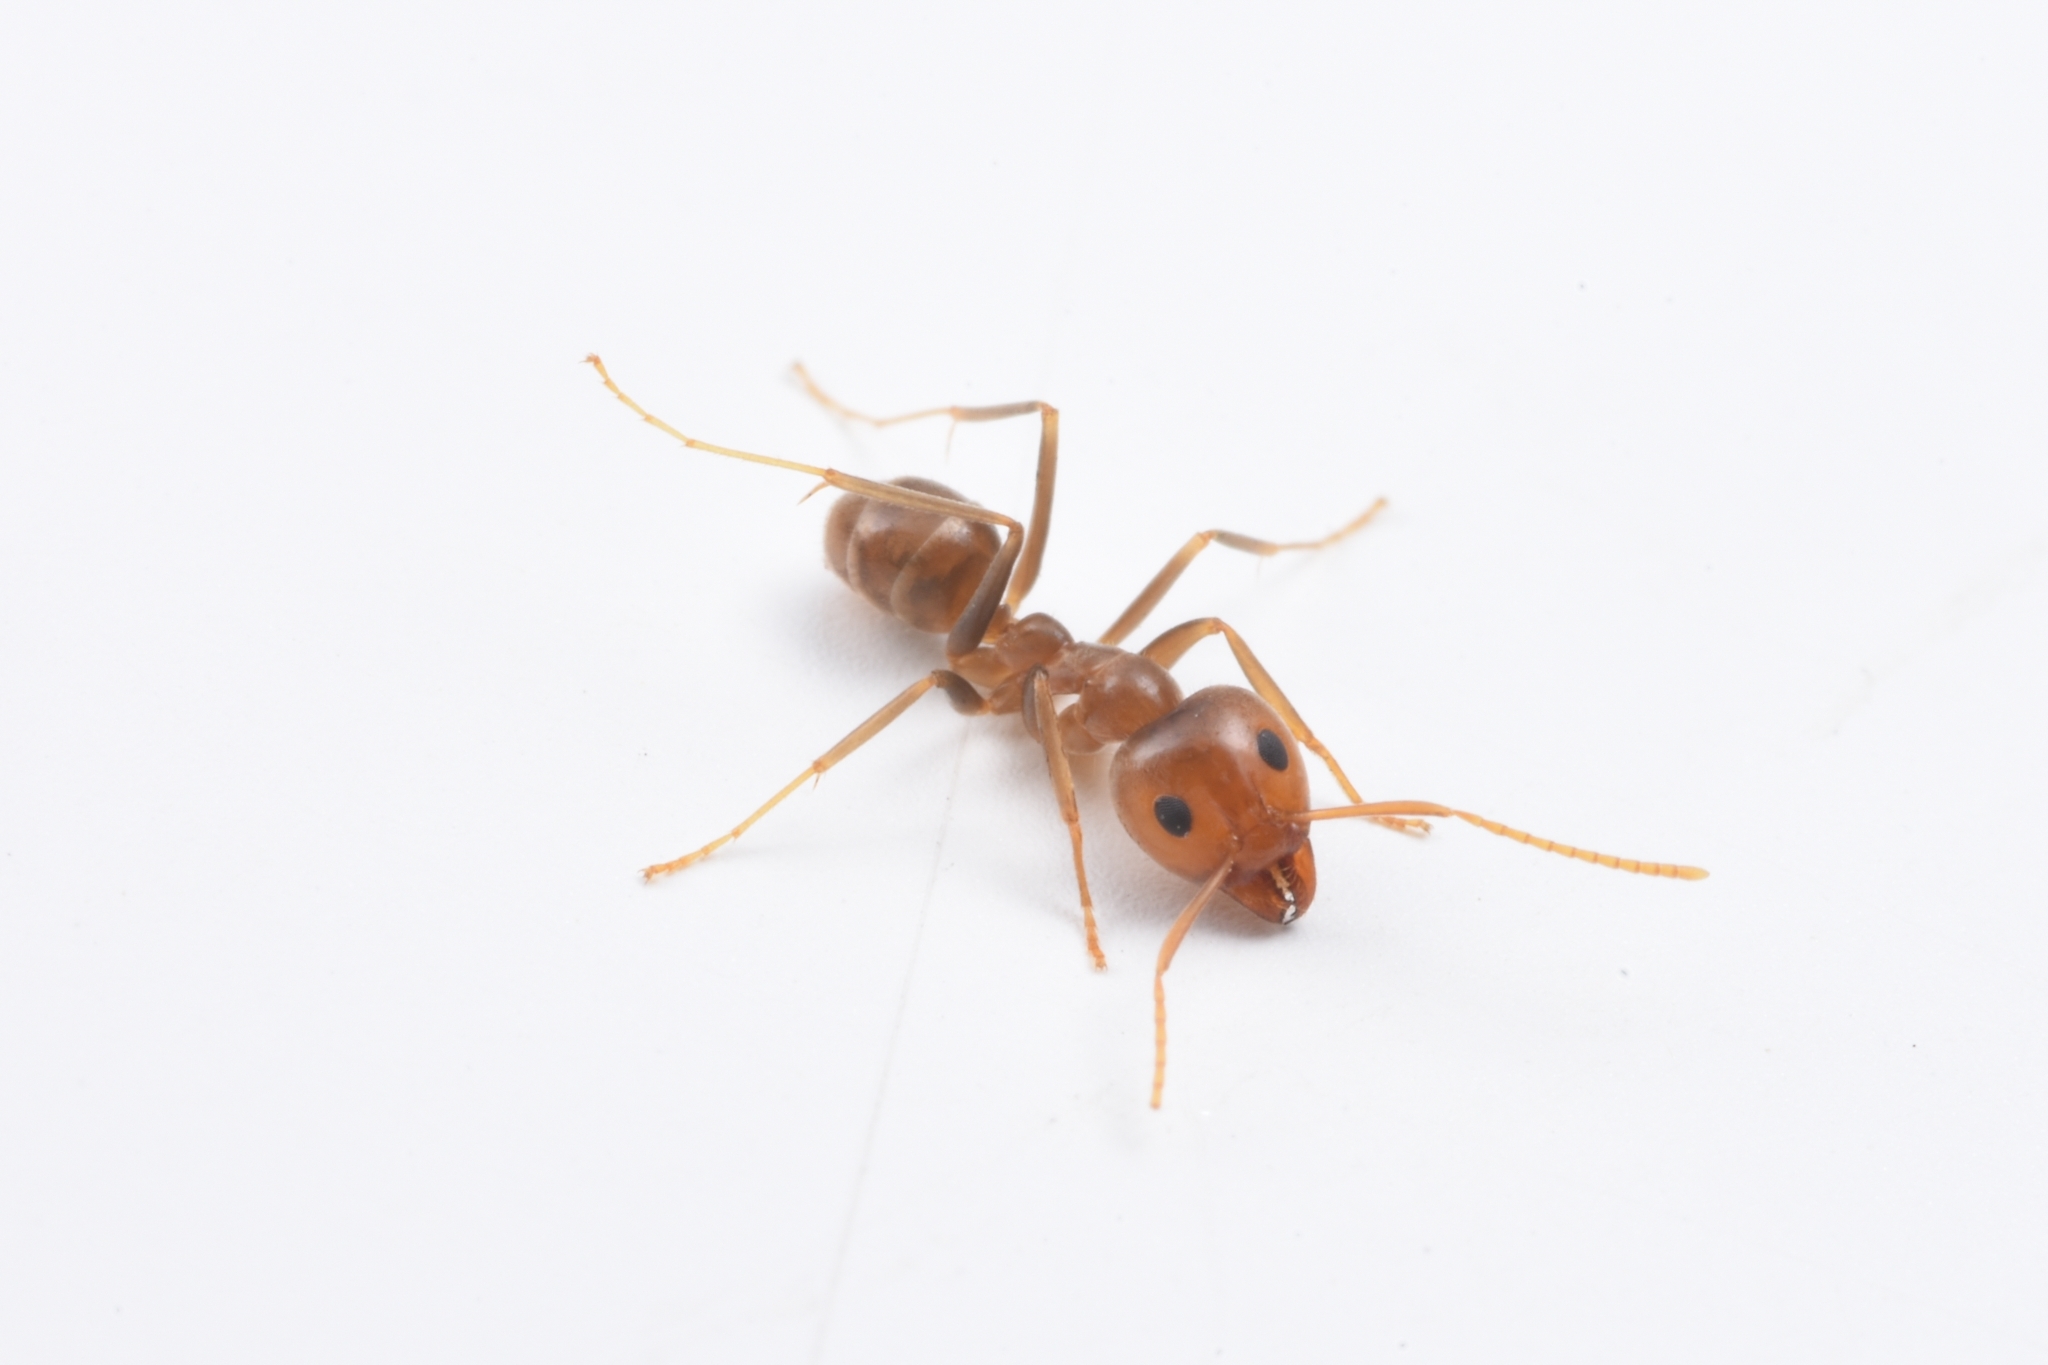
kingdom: Animalia
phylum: Arthropoda
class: Insecta
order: Hymenoptera
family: Formicidae
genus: Iridomyrmex
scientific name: Iridomyrmex pallidus
